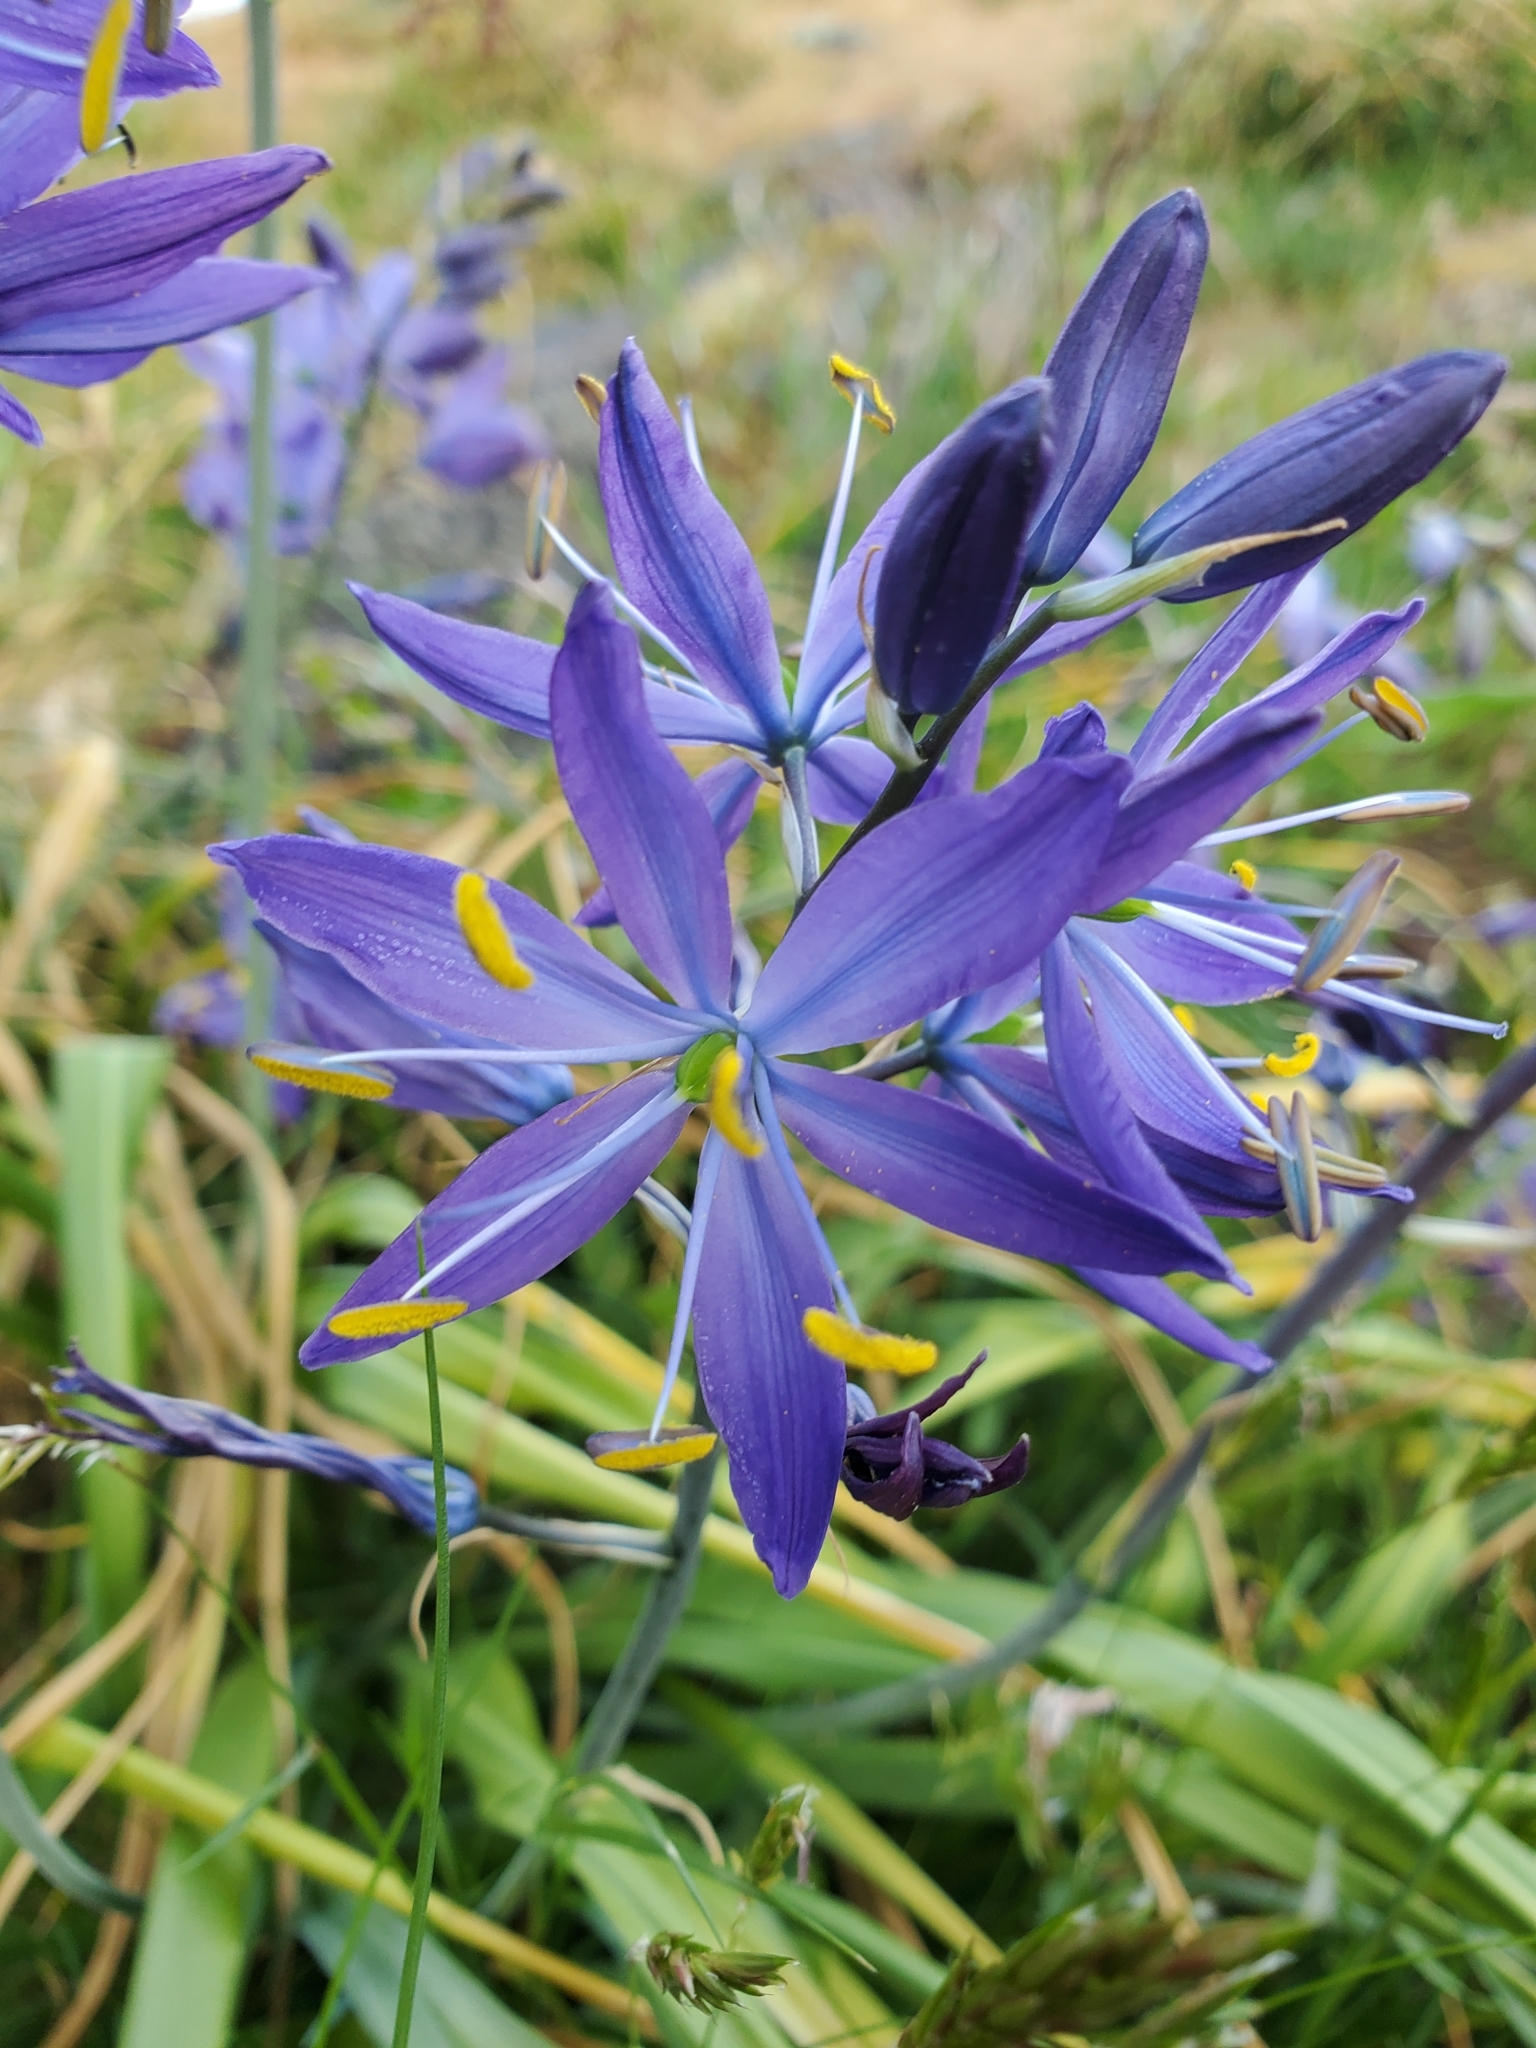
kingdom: Plantae
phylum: Tracheophyta
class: Liliopsida
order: Asparagales
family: Asparagaceae
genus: Camassia
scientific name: Camassia leichtlinii
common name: Leichtlin's camas
